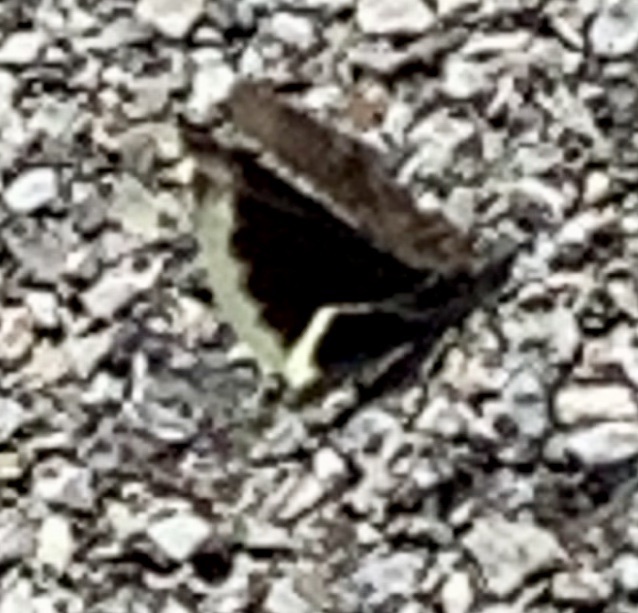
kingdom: Animalia
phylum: Arthropoda
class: Insecta
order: Orthoptera
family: Acrididae
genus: Dissosteira
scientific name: Dissosteira carolina
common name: Carolina grasshopper
